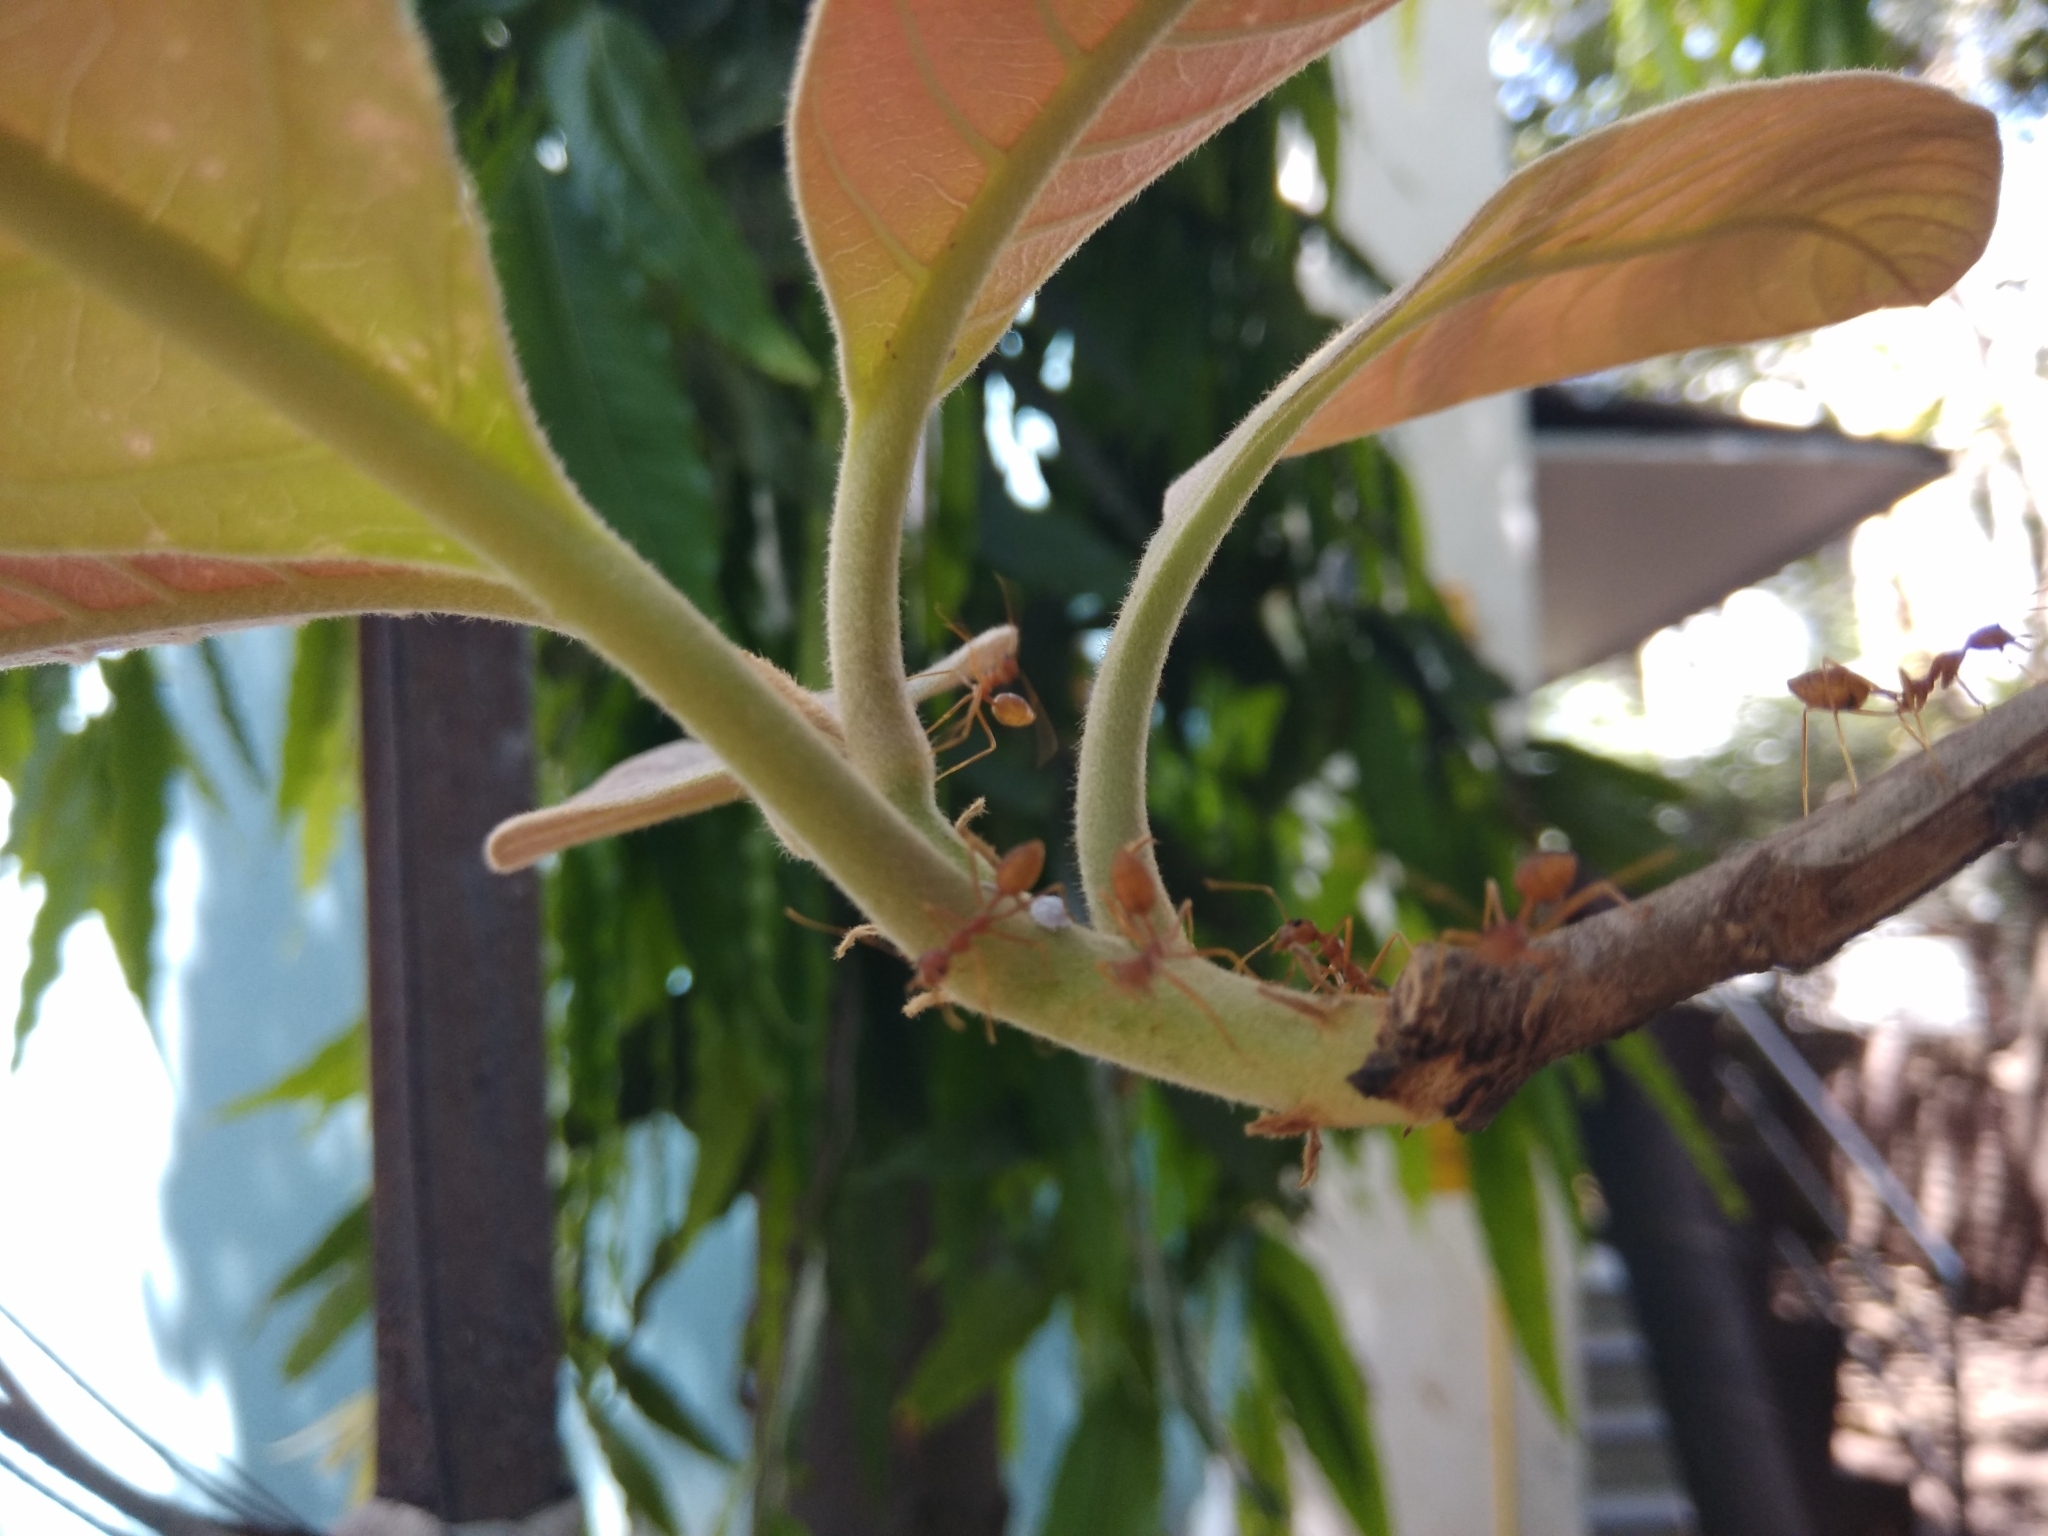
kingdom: Animalia
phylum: Arthropoda
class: Insecta
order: Hymenoptera
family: Formicidae
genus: Oecophylla
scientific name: Oecophylla smaragdina
